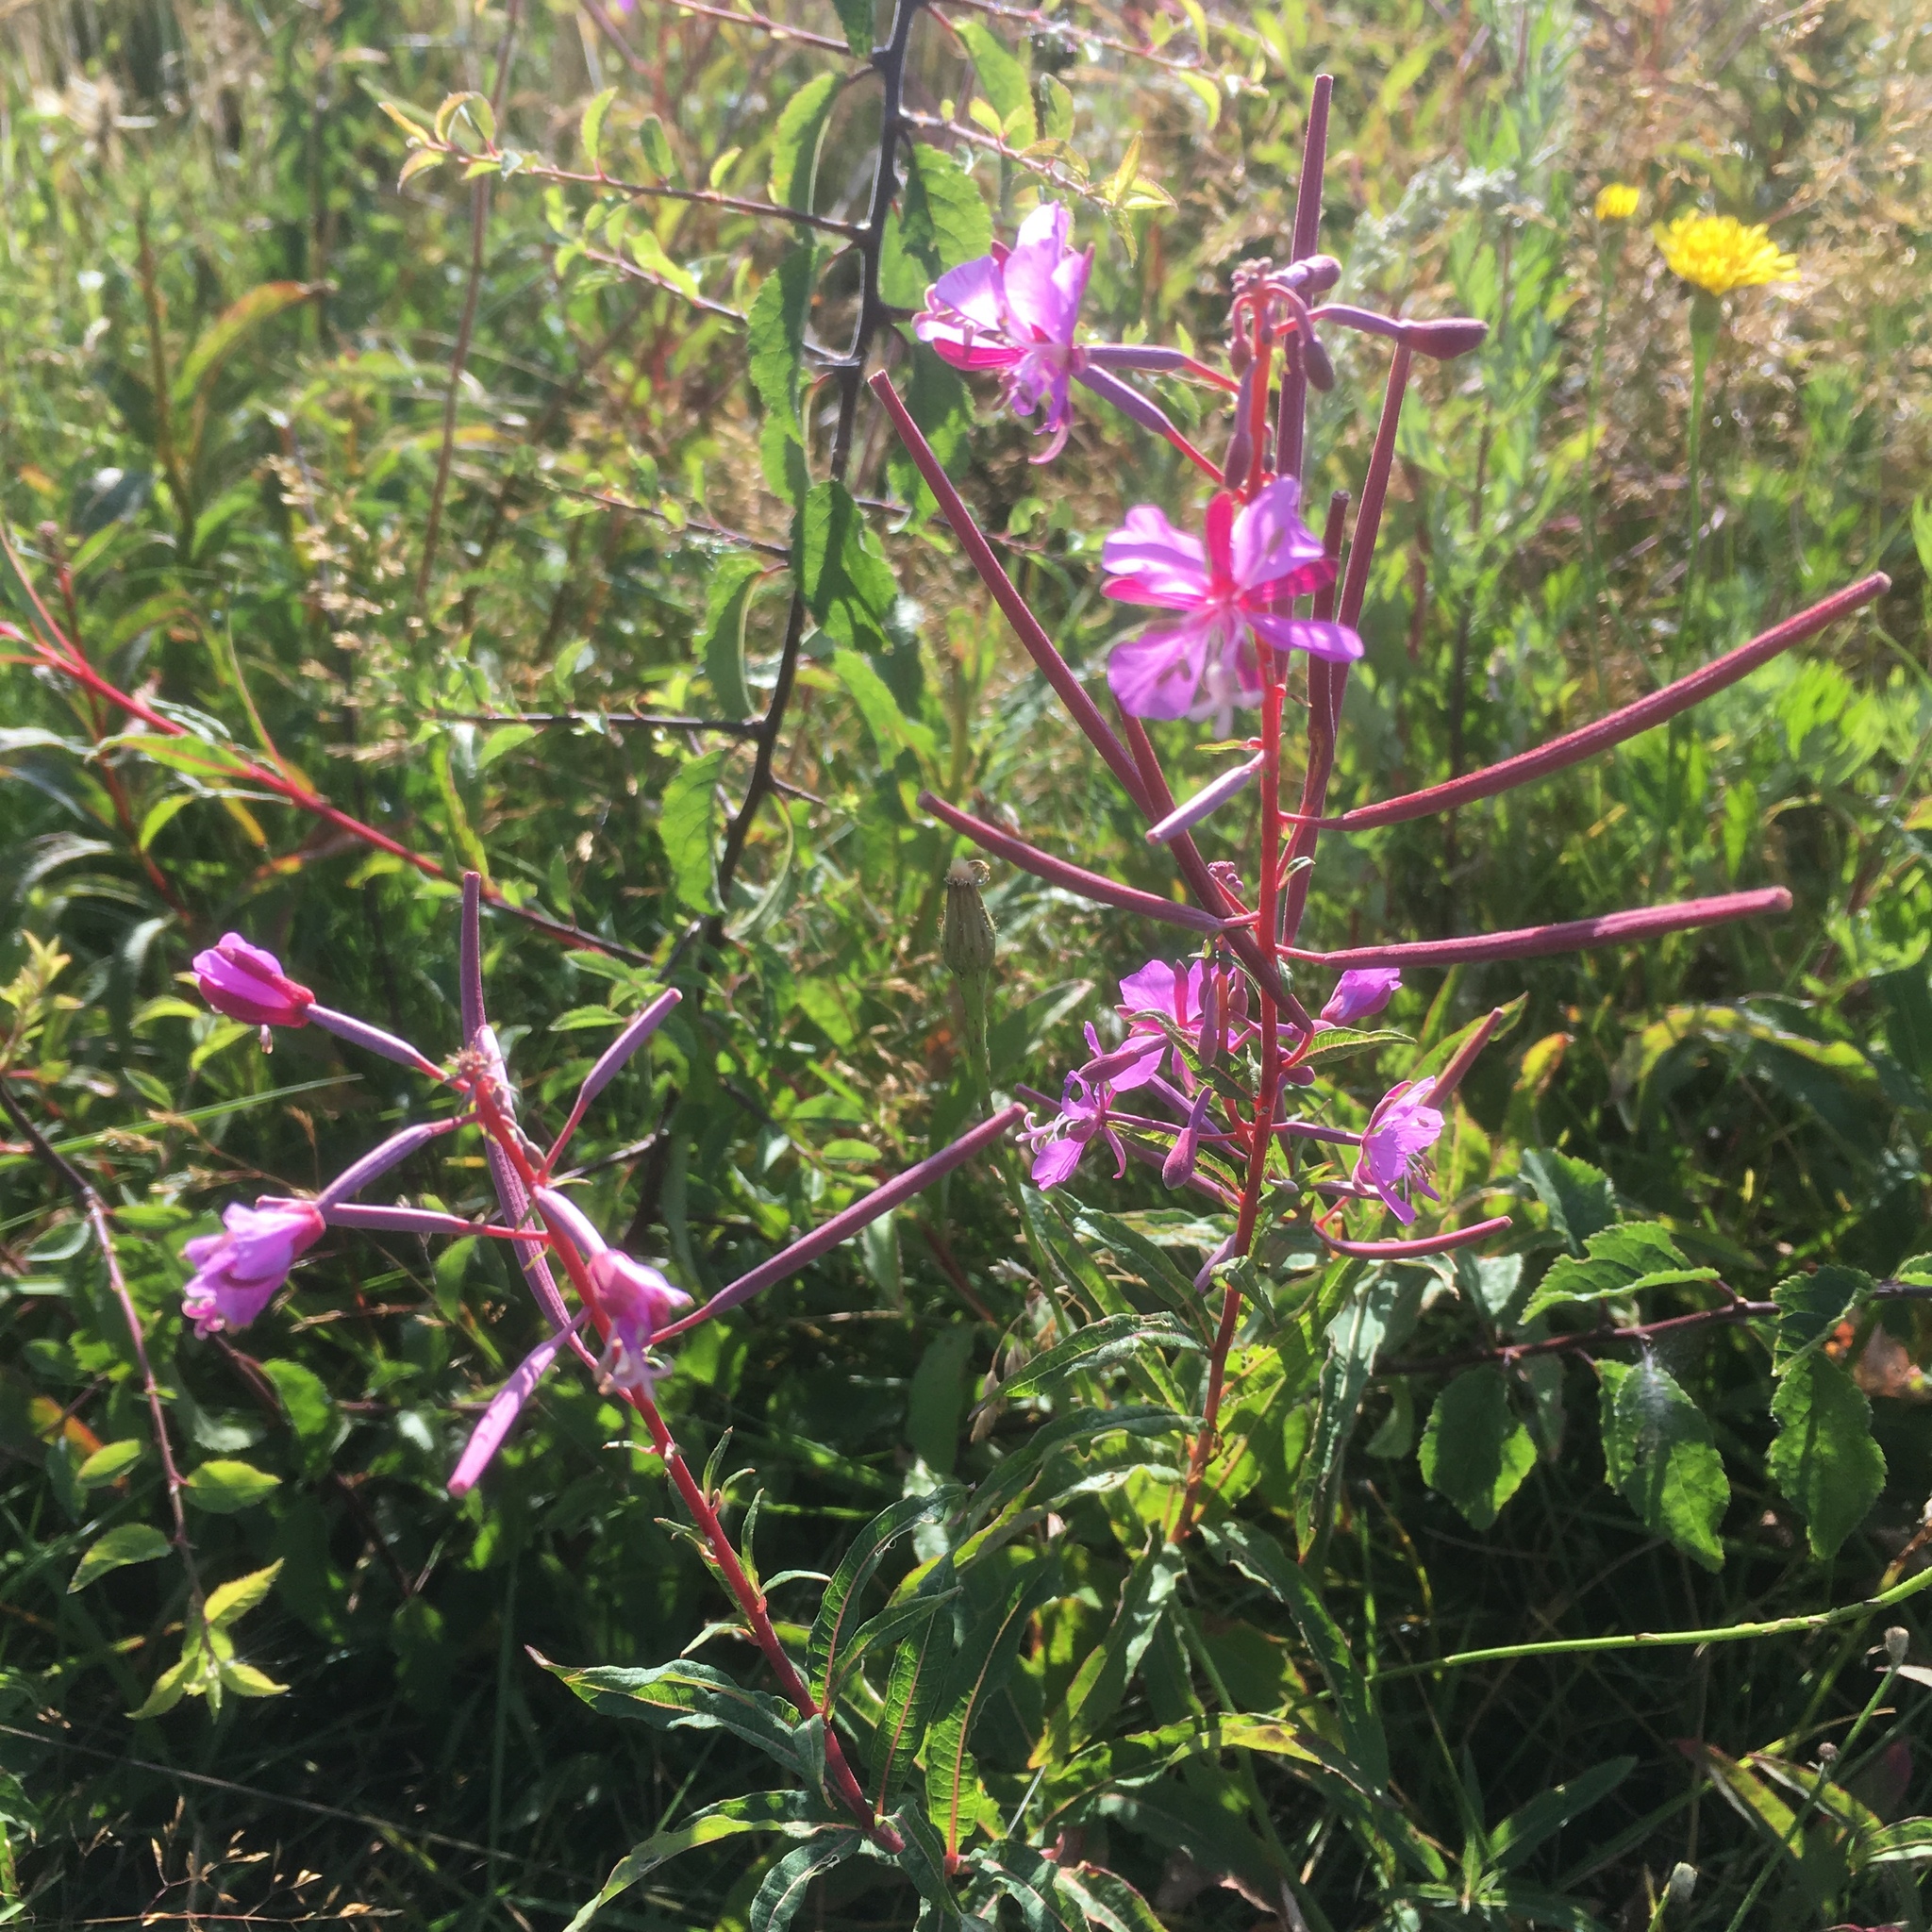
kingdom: Plantae
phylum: Tracheophyta
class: Magnoliopsida
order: Myrtales
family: Onagraceae
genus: Chamaenerion
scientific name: Chamaenerion angustifolium
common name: Fireweed
